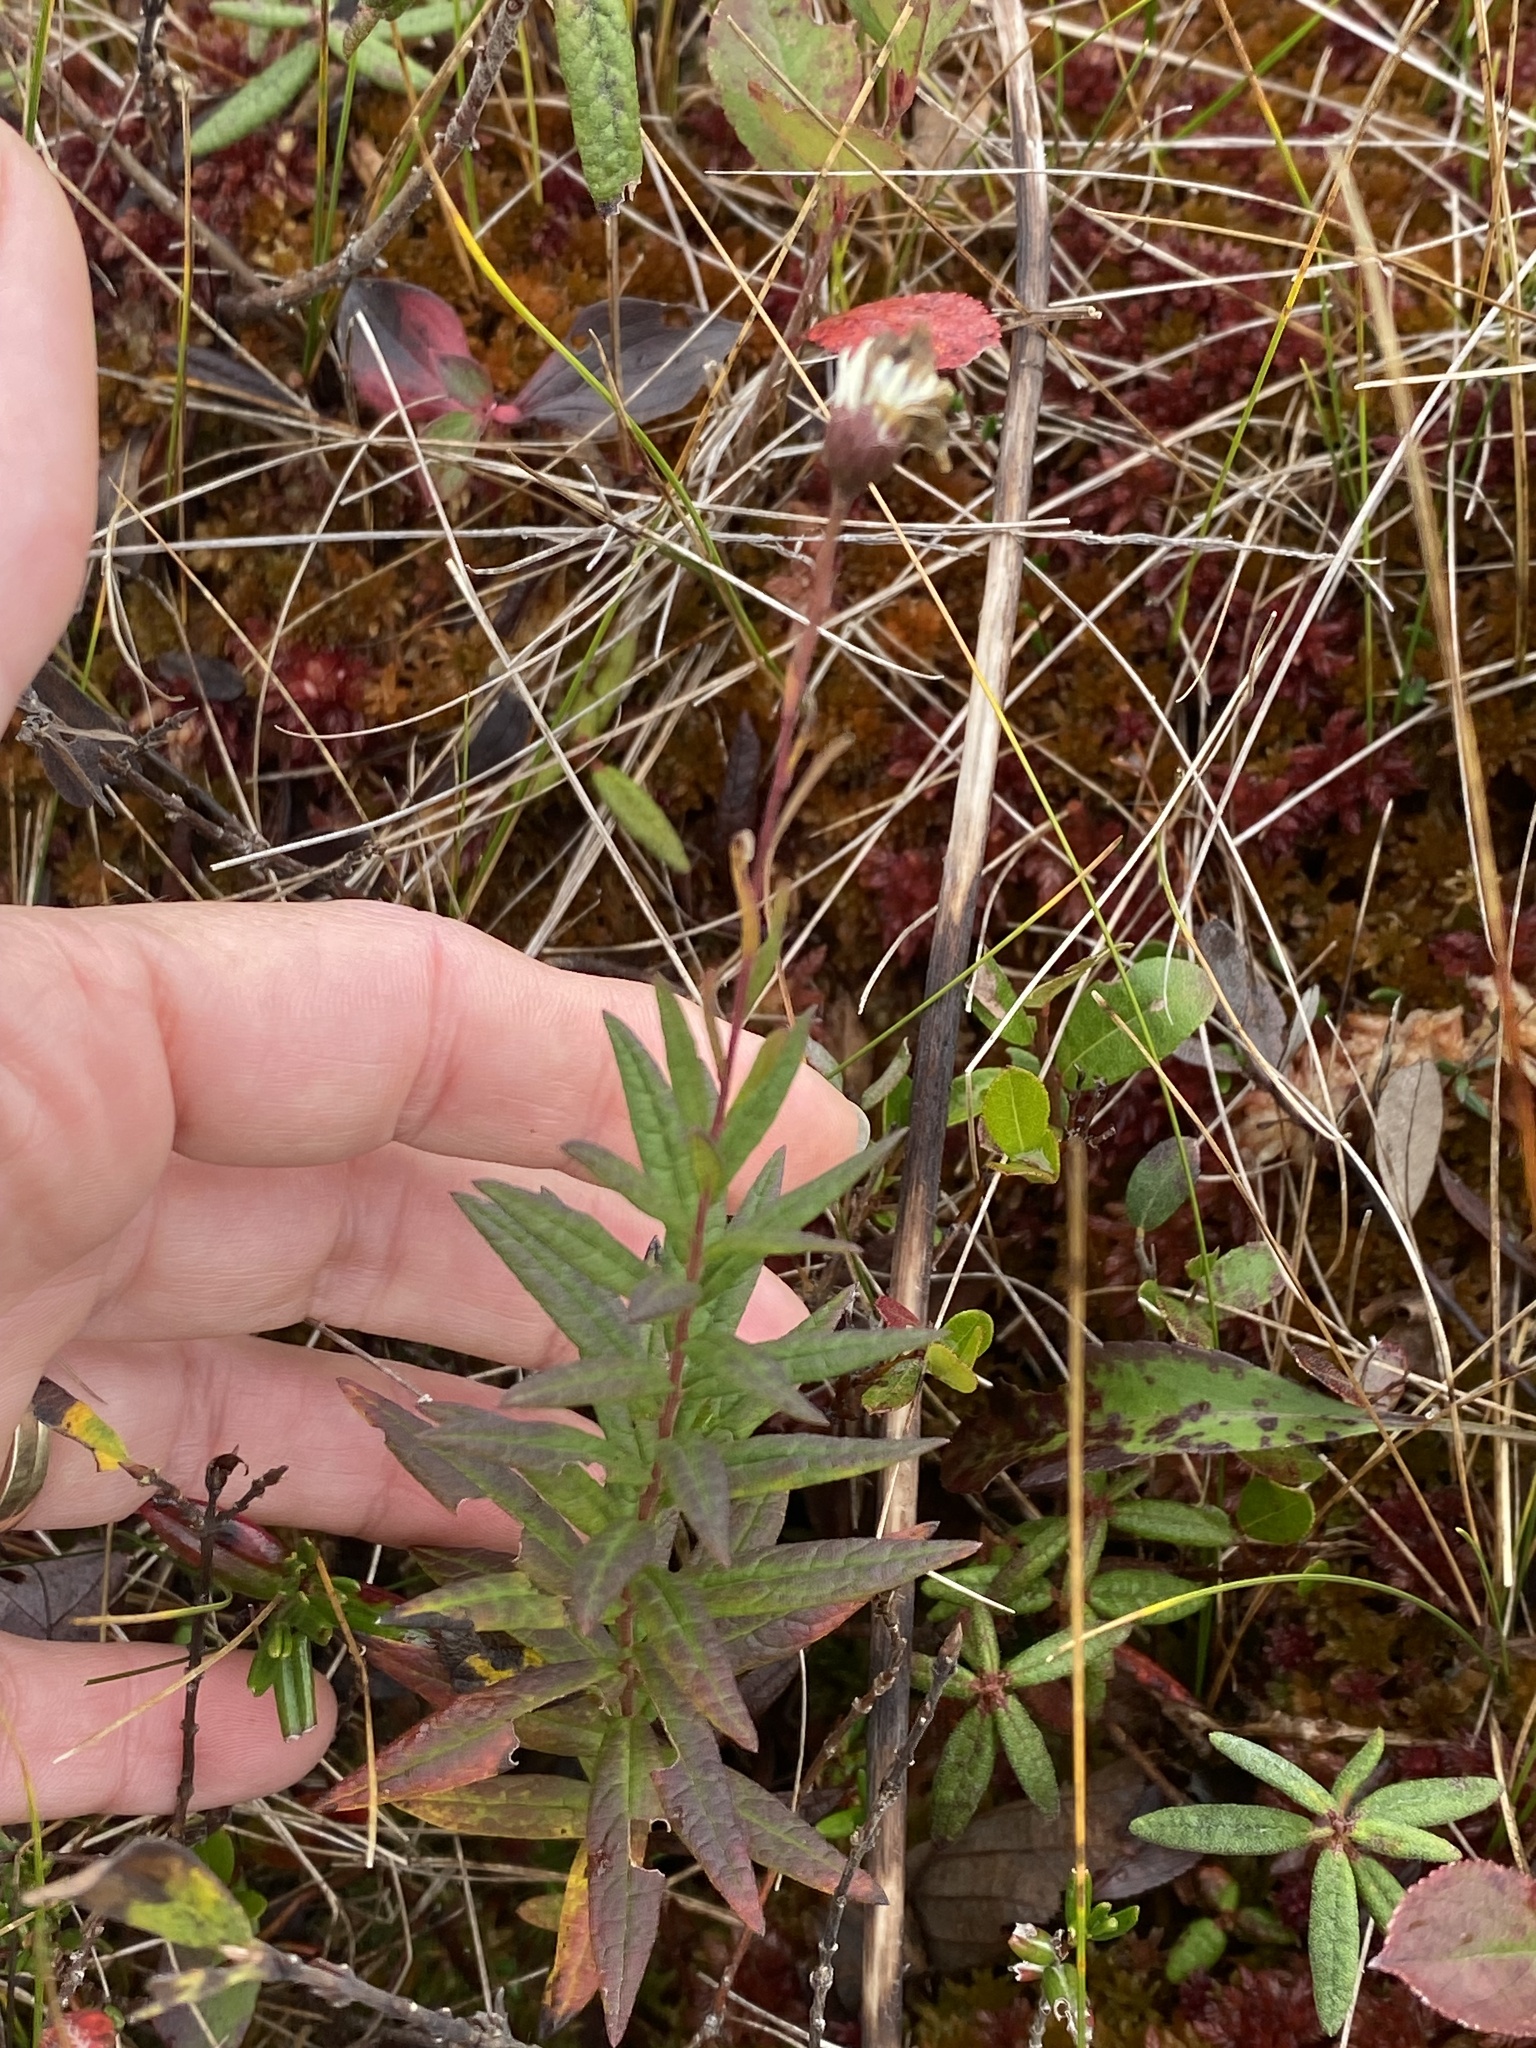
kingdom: Plantae
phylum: Tracheophyta
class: Magnoliopsida
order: Asterales
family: Asteraceae
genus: Oclemena
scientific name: Oclemena nemoralis
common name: Bog aster
